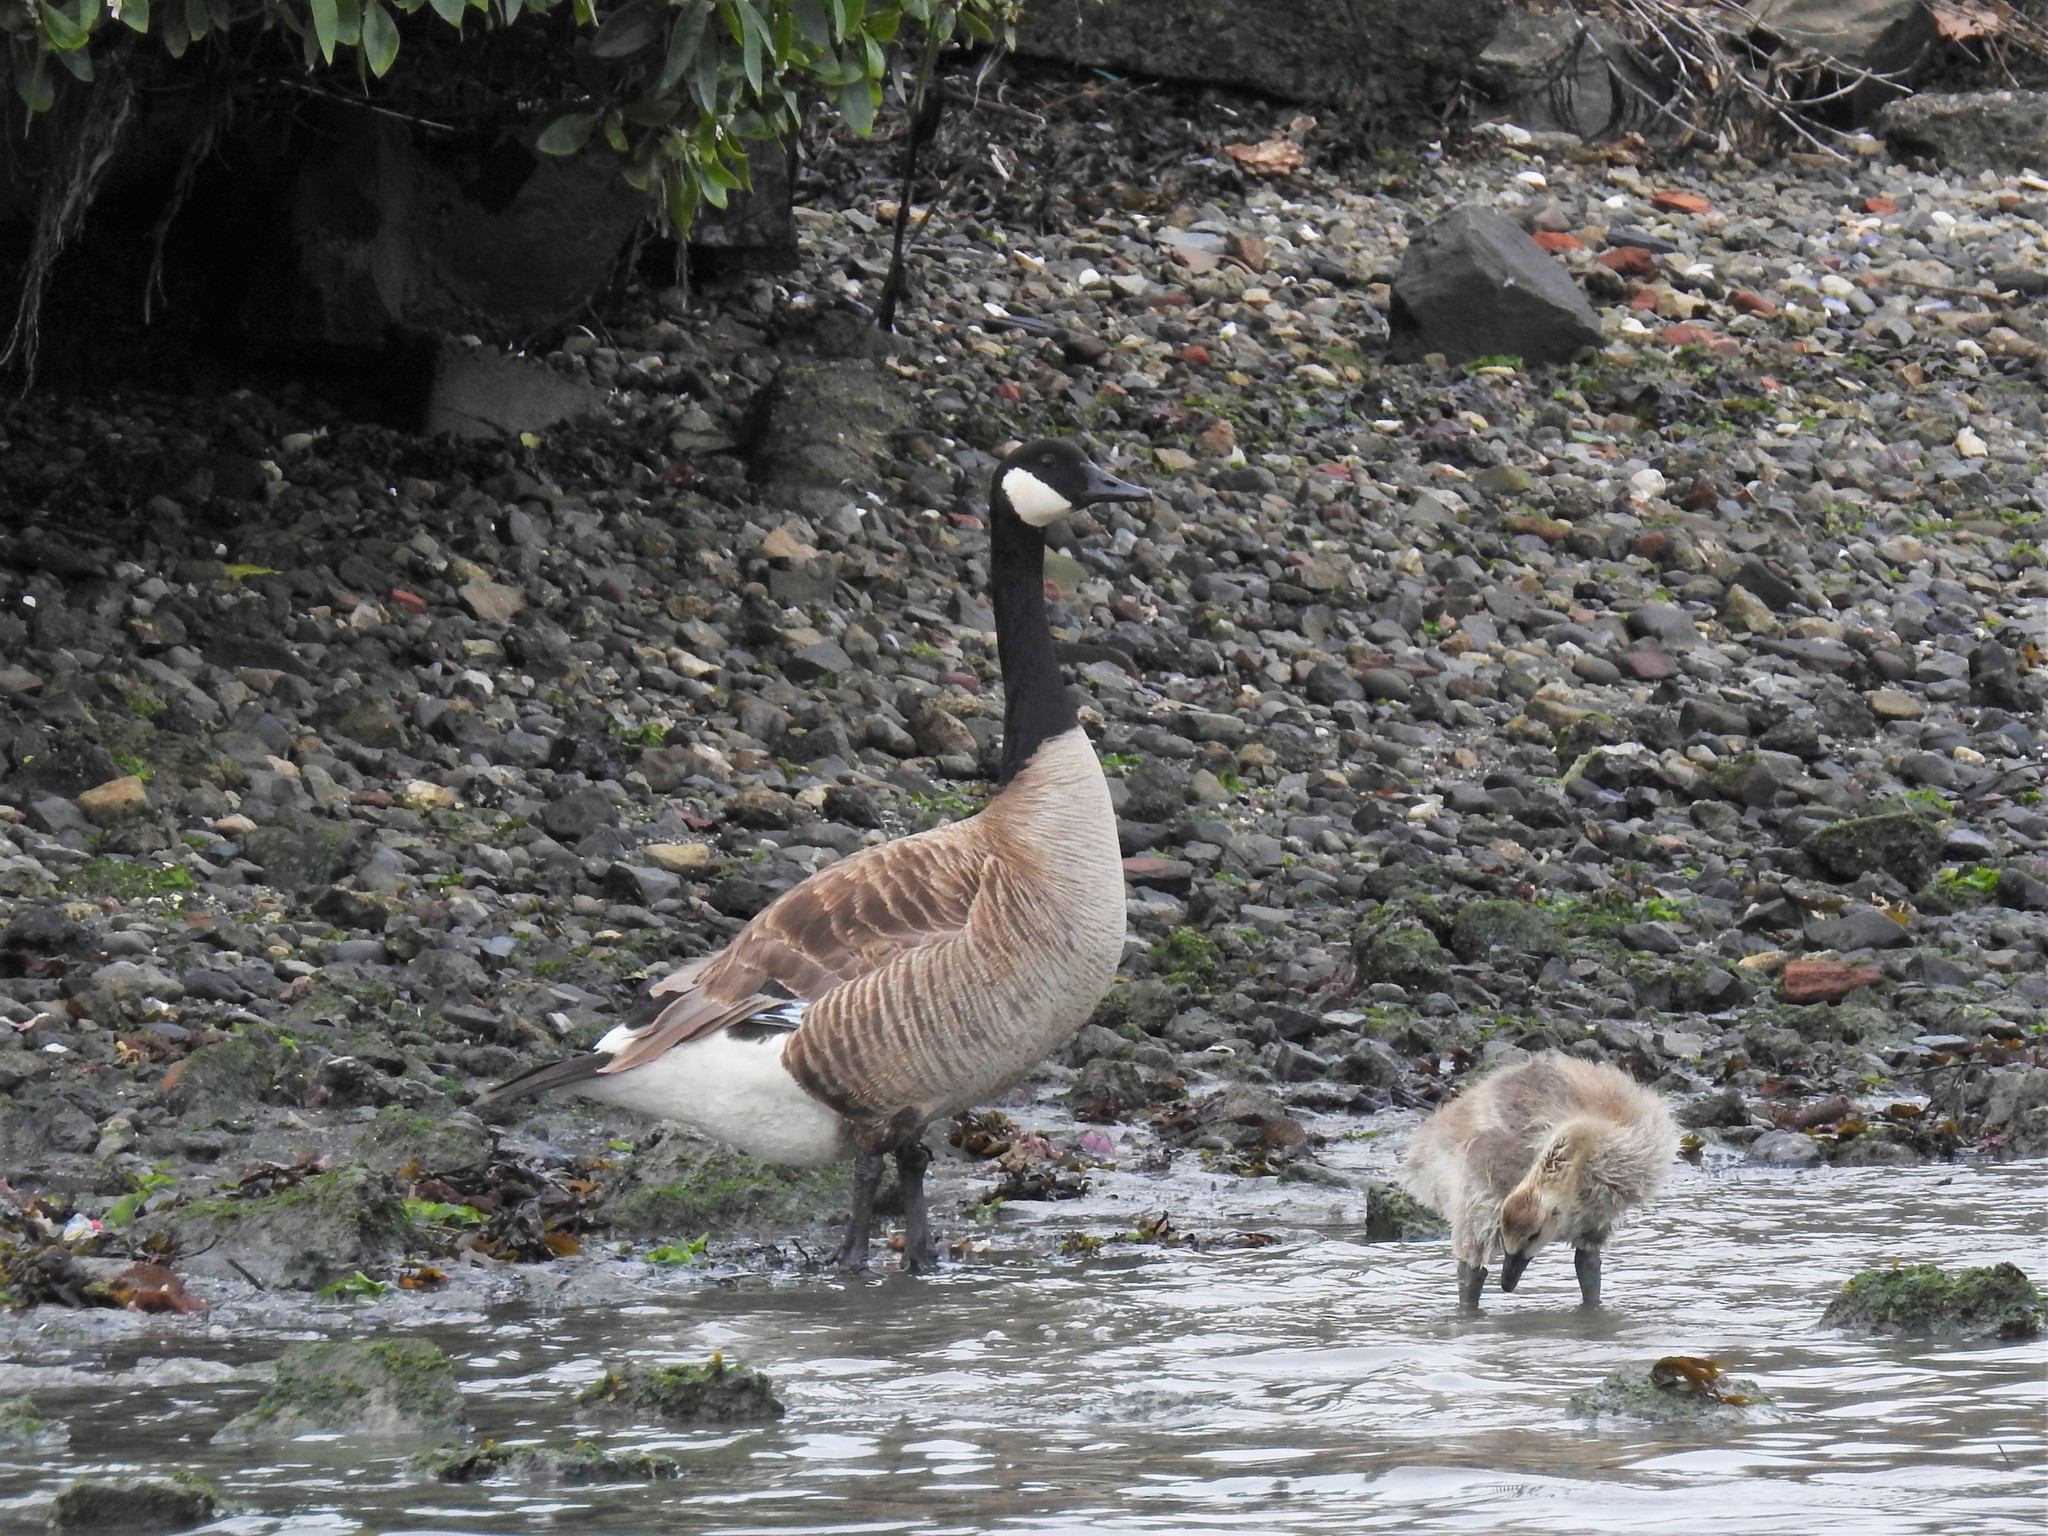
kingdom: Animalia
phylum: Chordata
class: Aves
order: Anseriformes
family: Anatidae
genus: Branta
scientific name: Branta canadensis
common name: Canada goose
